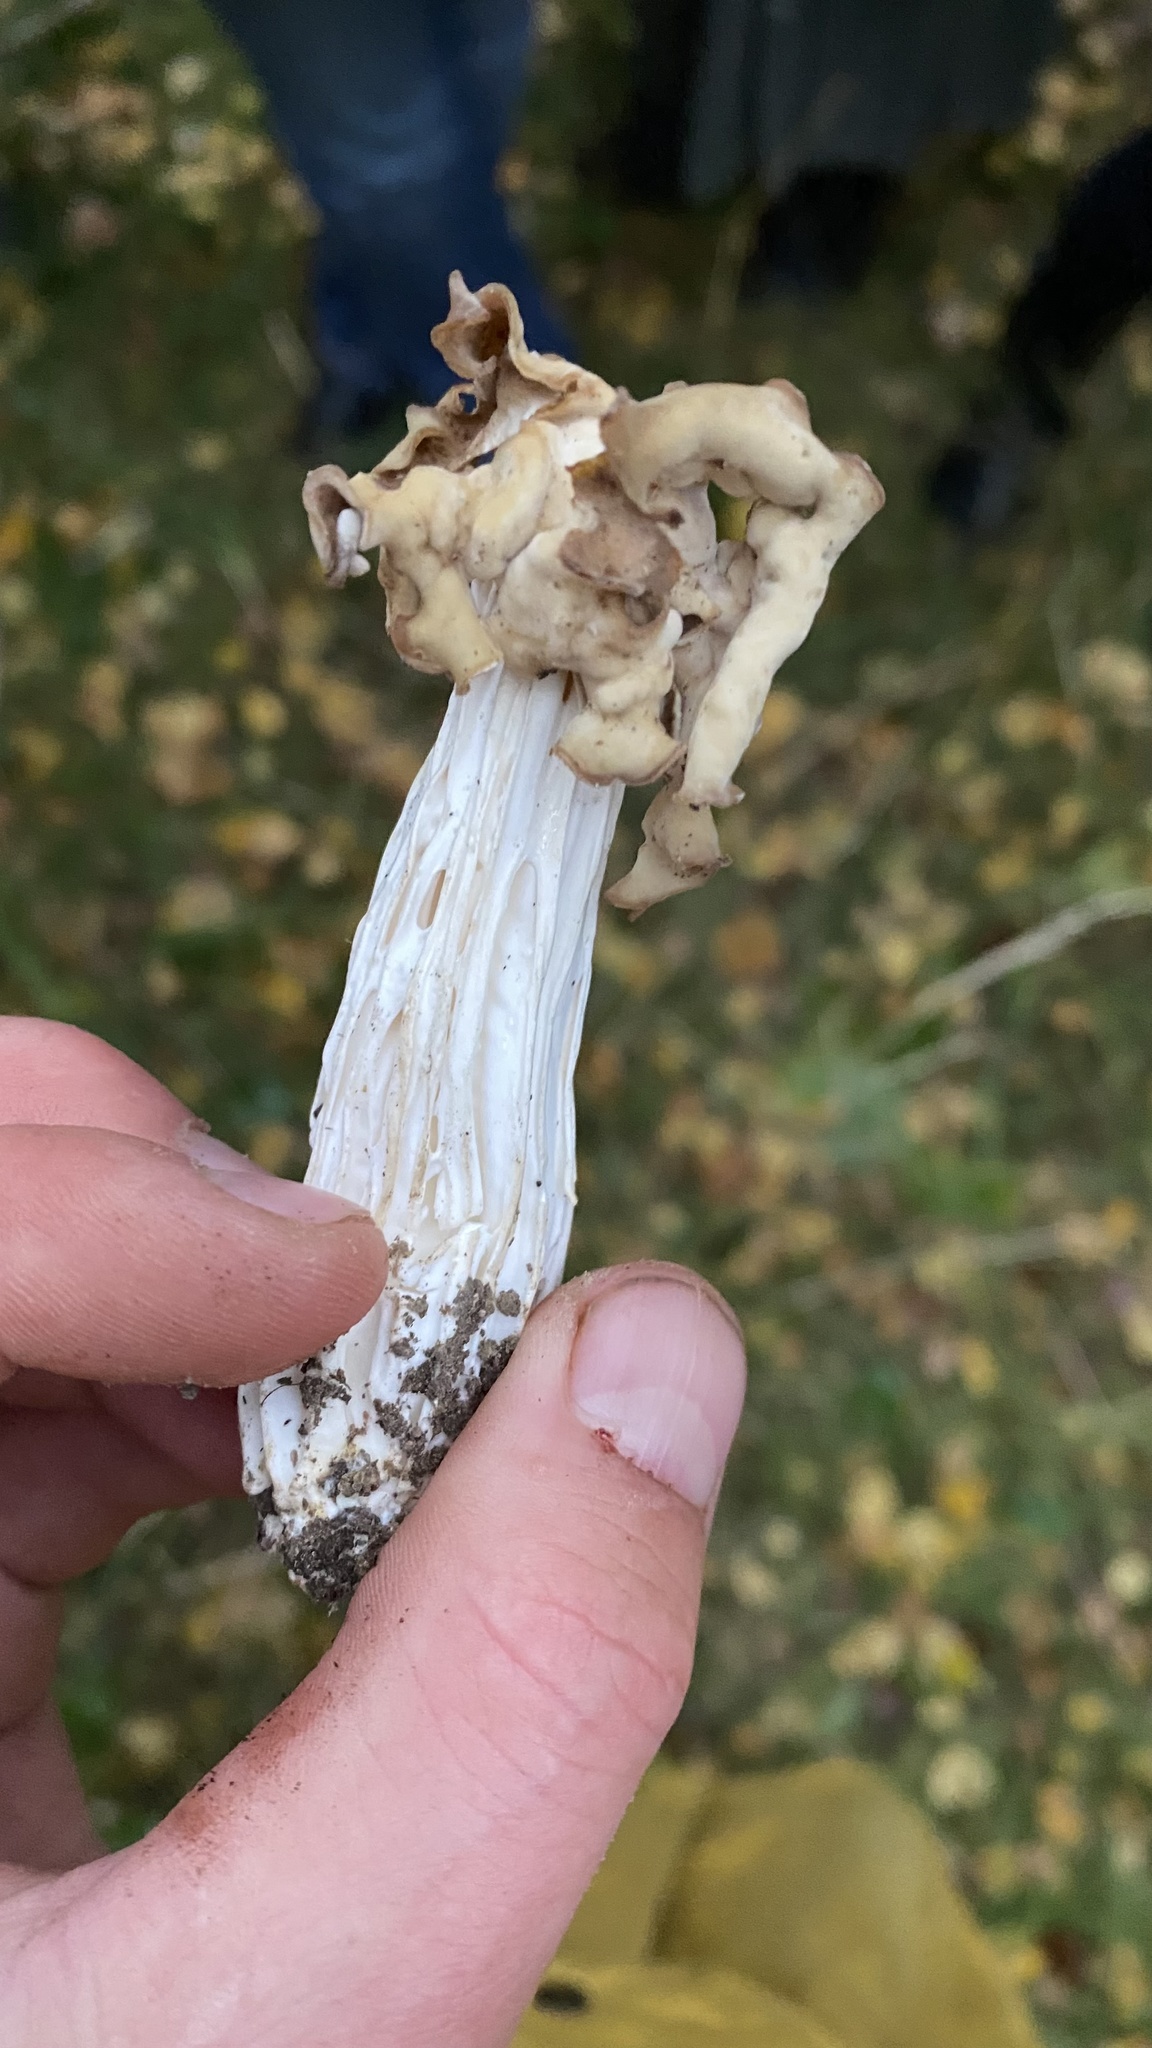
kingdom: Fungi
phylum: Ascomycota
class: Pezizomycetes
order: Pezizales
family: Helvellaceae
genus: Helvella
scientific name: Helvella crispa
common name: White saddle
